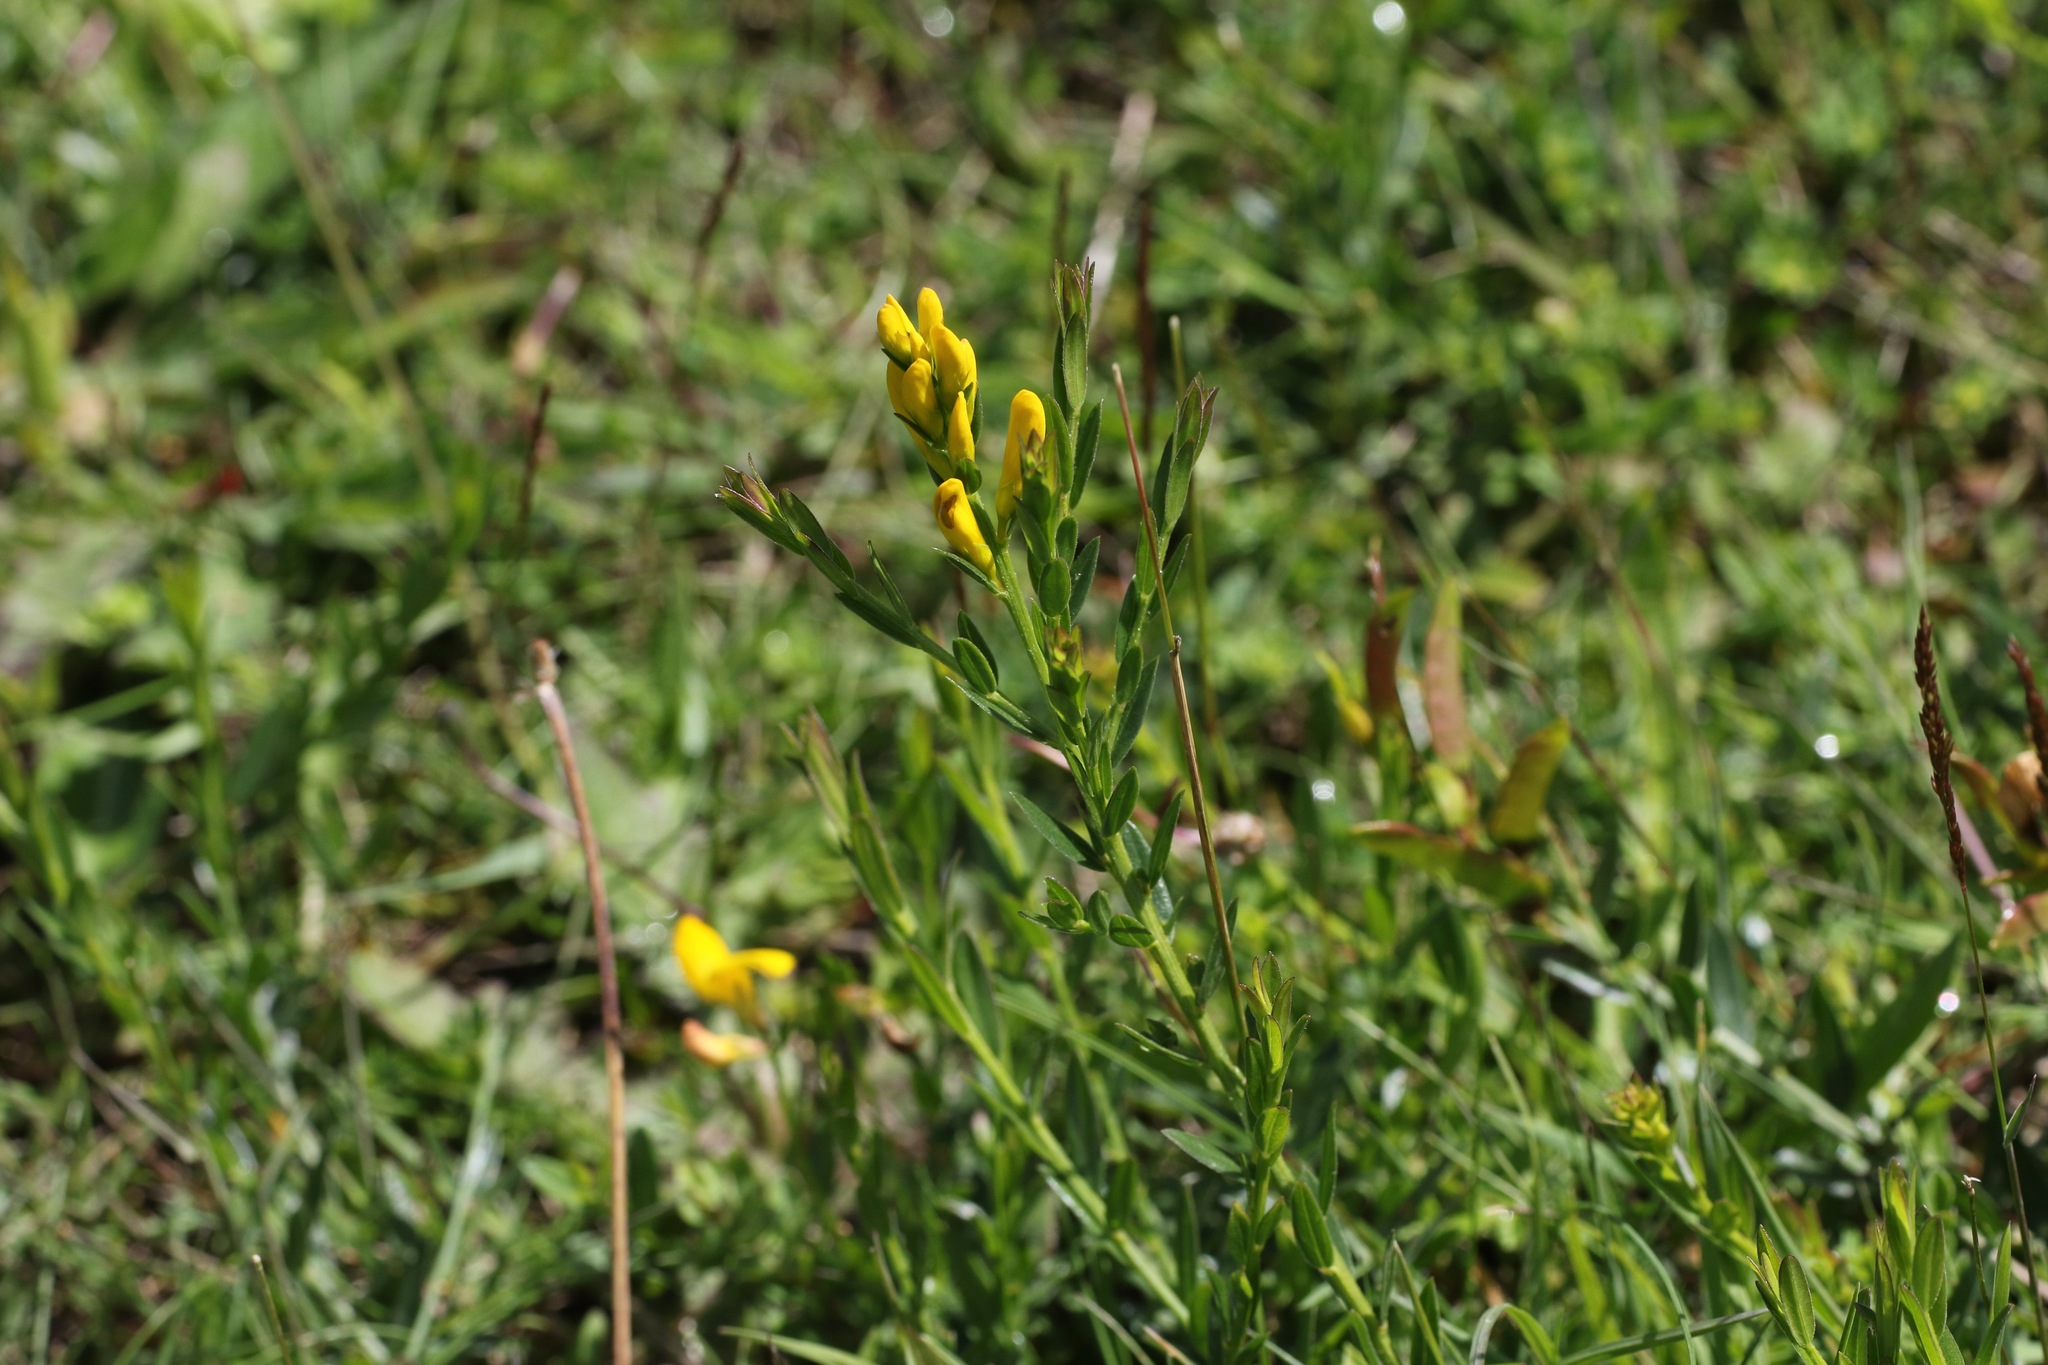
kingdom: Plantae
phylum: Tracheophyta
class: Magnoliopsida
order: Fabales
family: Fabaceae
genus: Genista
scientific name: Genista tinctoria
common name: Dyer's greenweed
